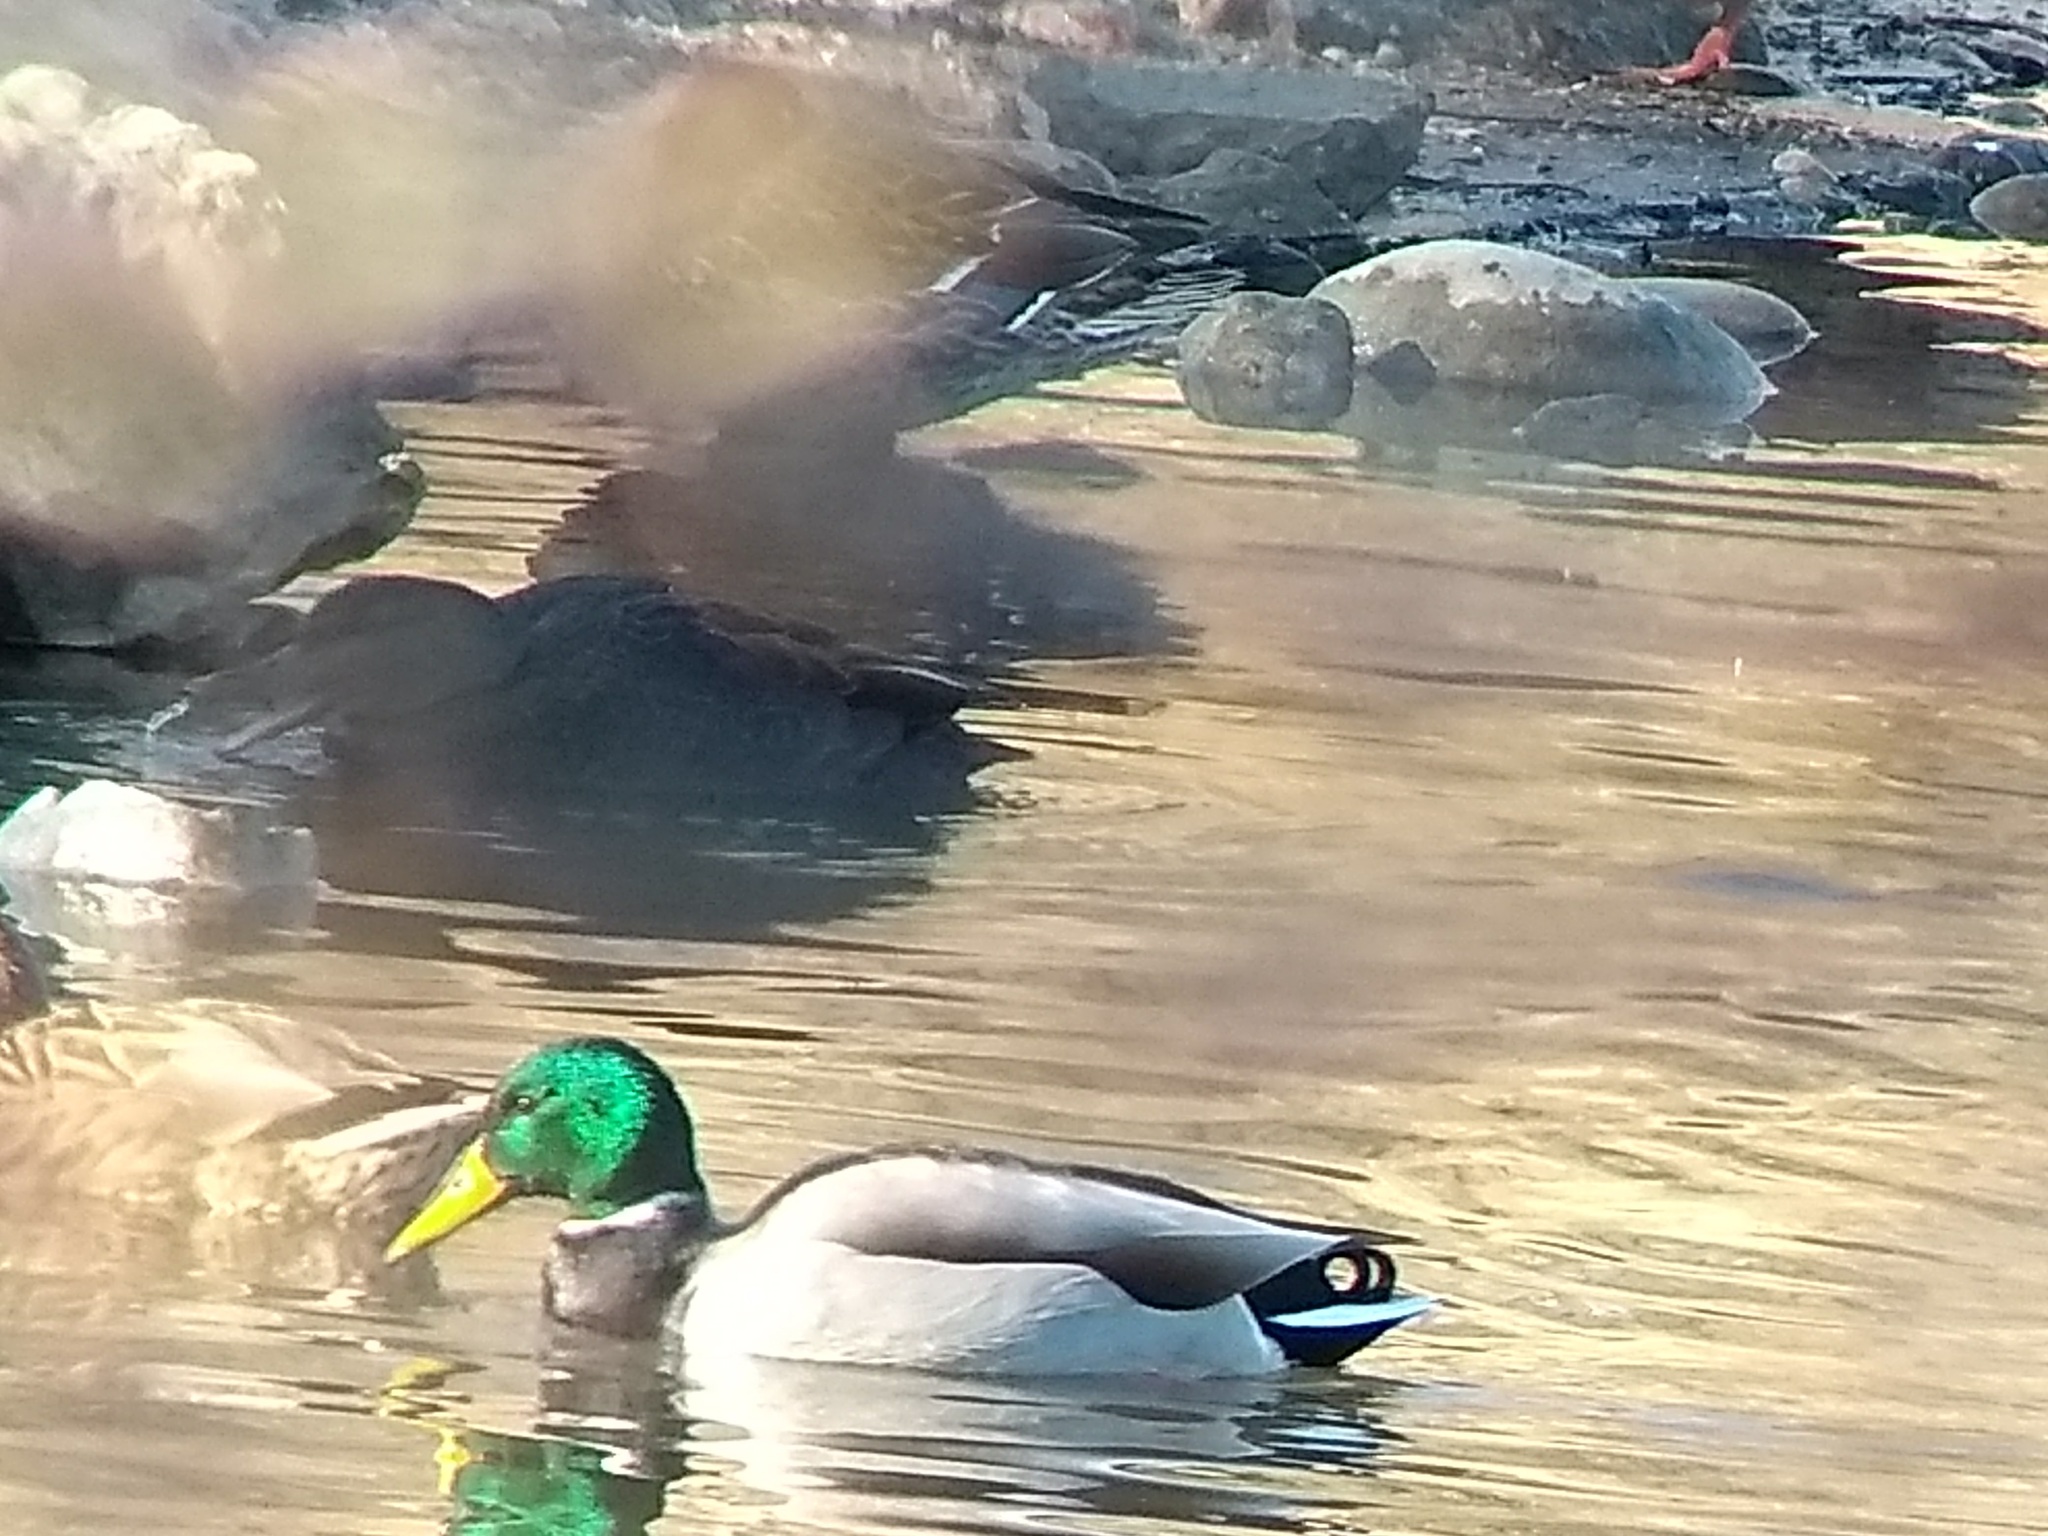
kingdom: Animalia
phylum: Chordata
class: Aves
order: Anseriformes
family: Anatidae
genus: Anas
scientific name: Anas rubripes
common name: American black duck
